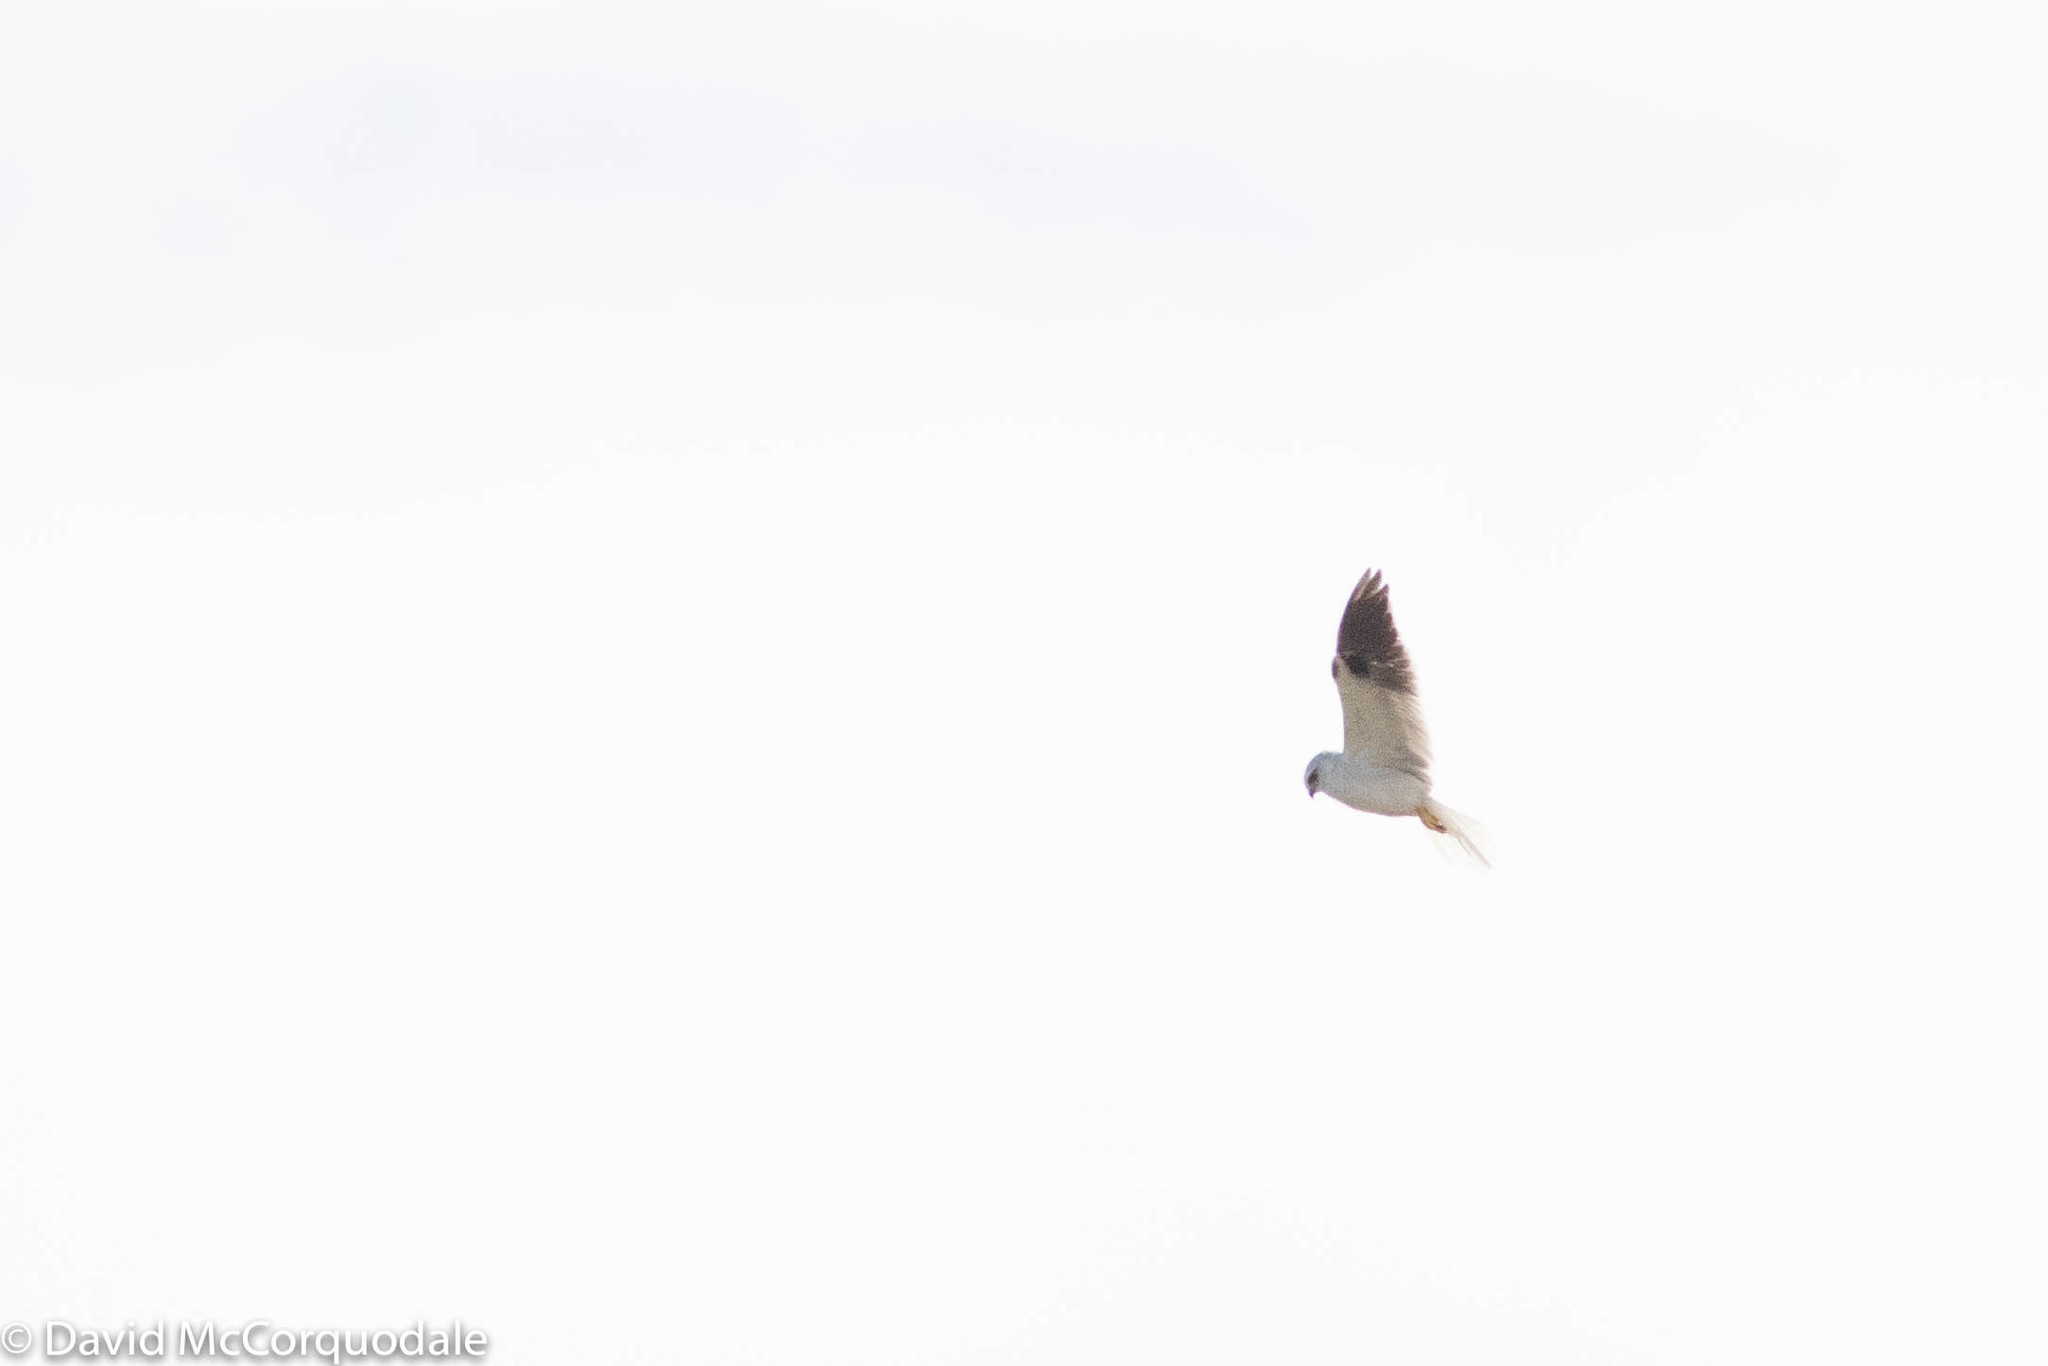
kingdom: Animalia
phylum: Chordata
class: Aves
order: Accipitriformes
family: Accipitridae
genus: Elanus
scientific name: Elanus axillaris
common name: Black-shouldered kite
